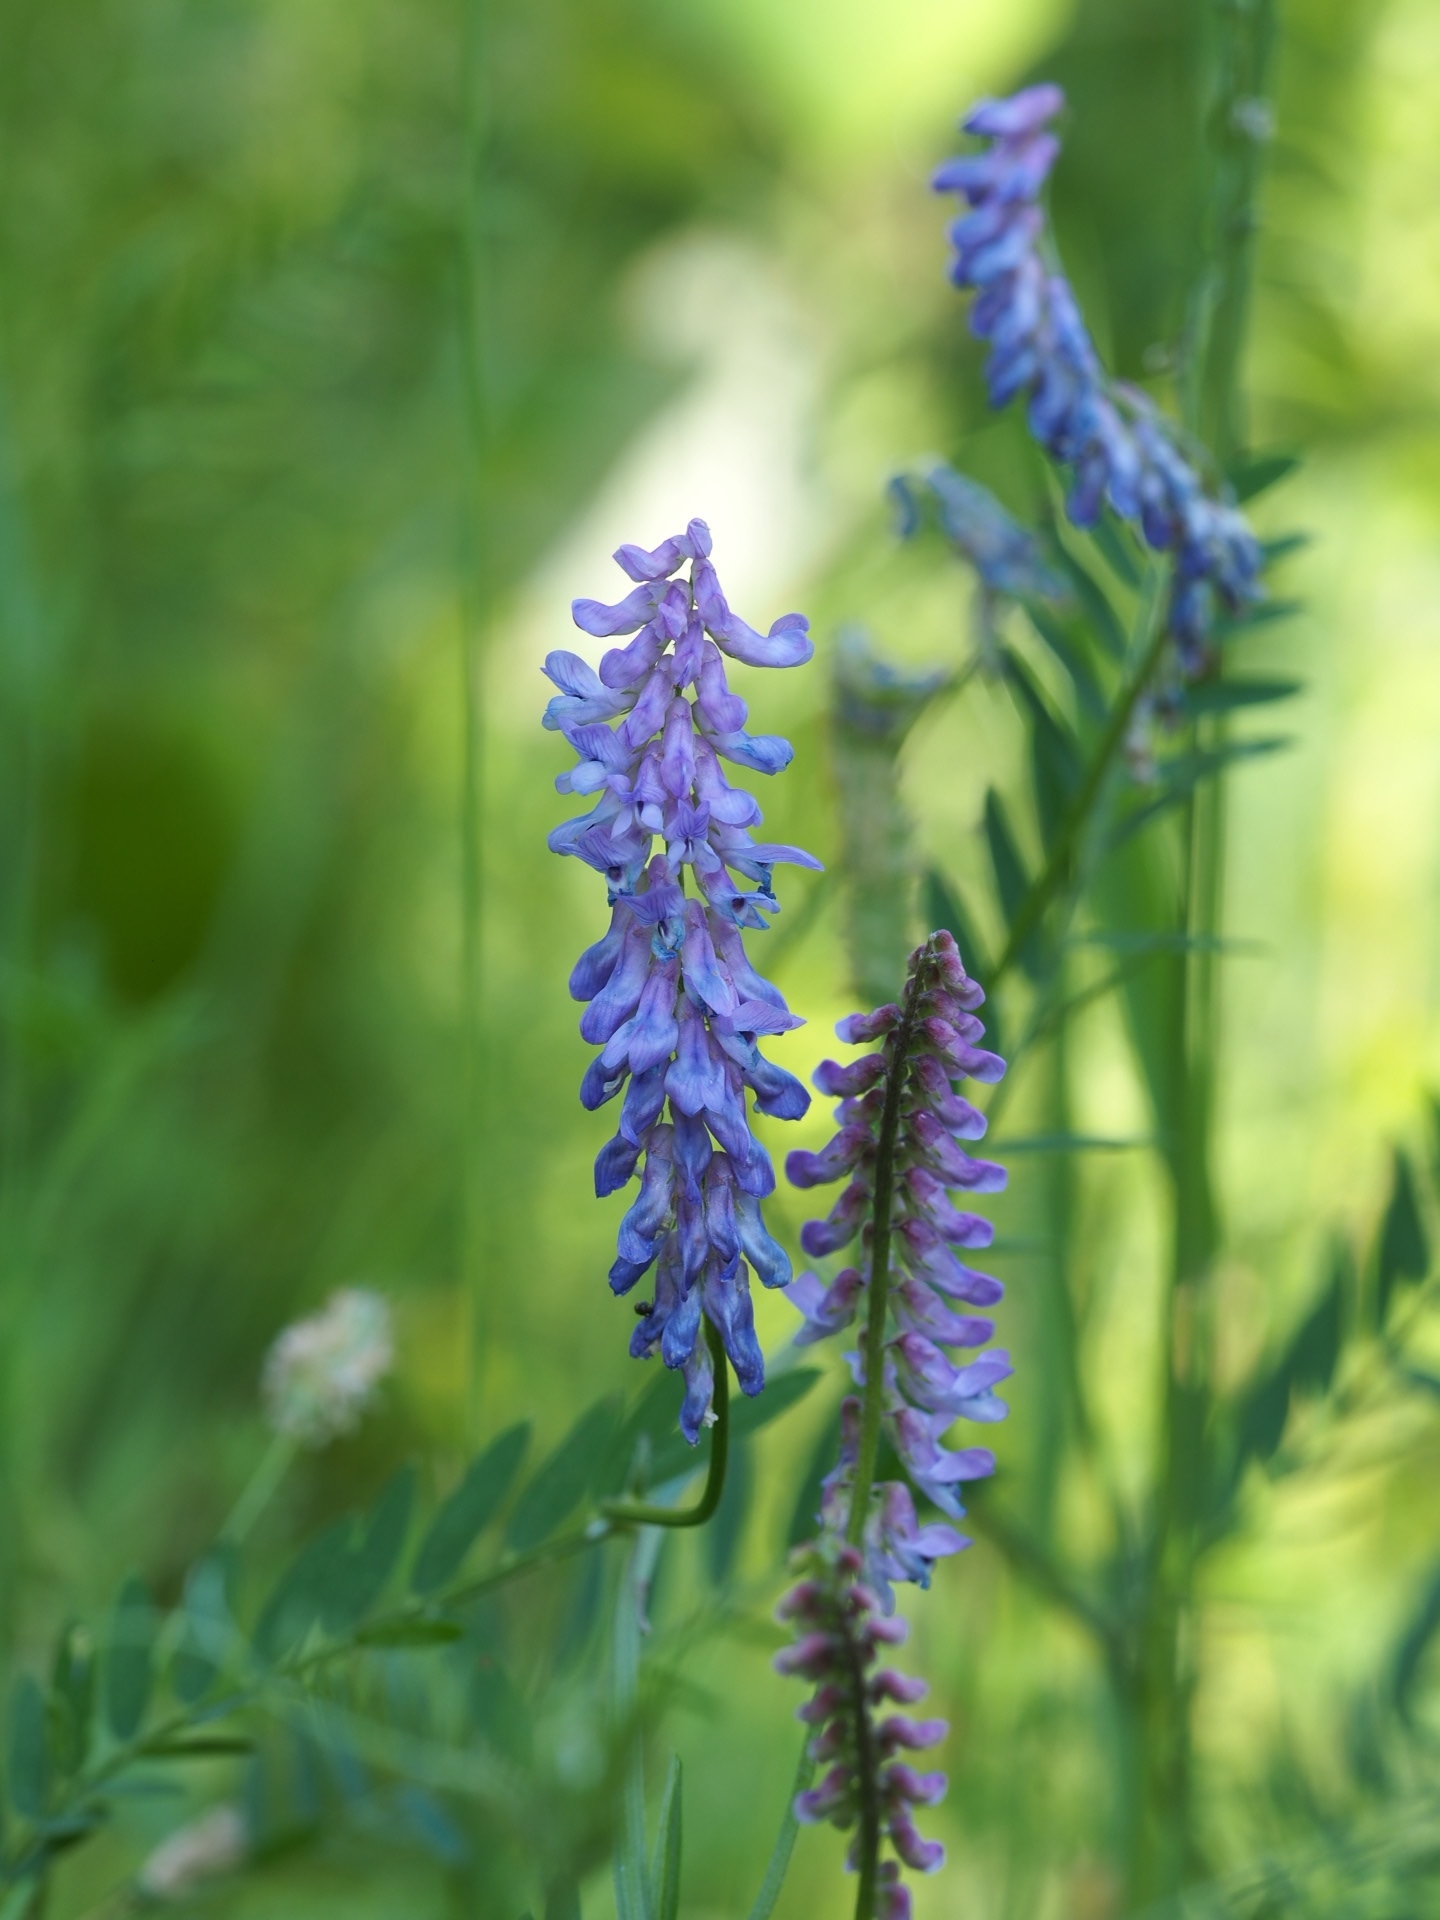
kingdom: Plantae
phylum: Tracheophyta
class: Magnoliopsida
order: Fabales
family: Fabaceae
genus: Vicia
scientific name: Vicia cracca
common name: Bird vetch
